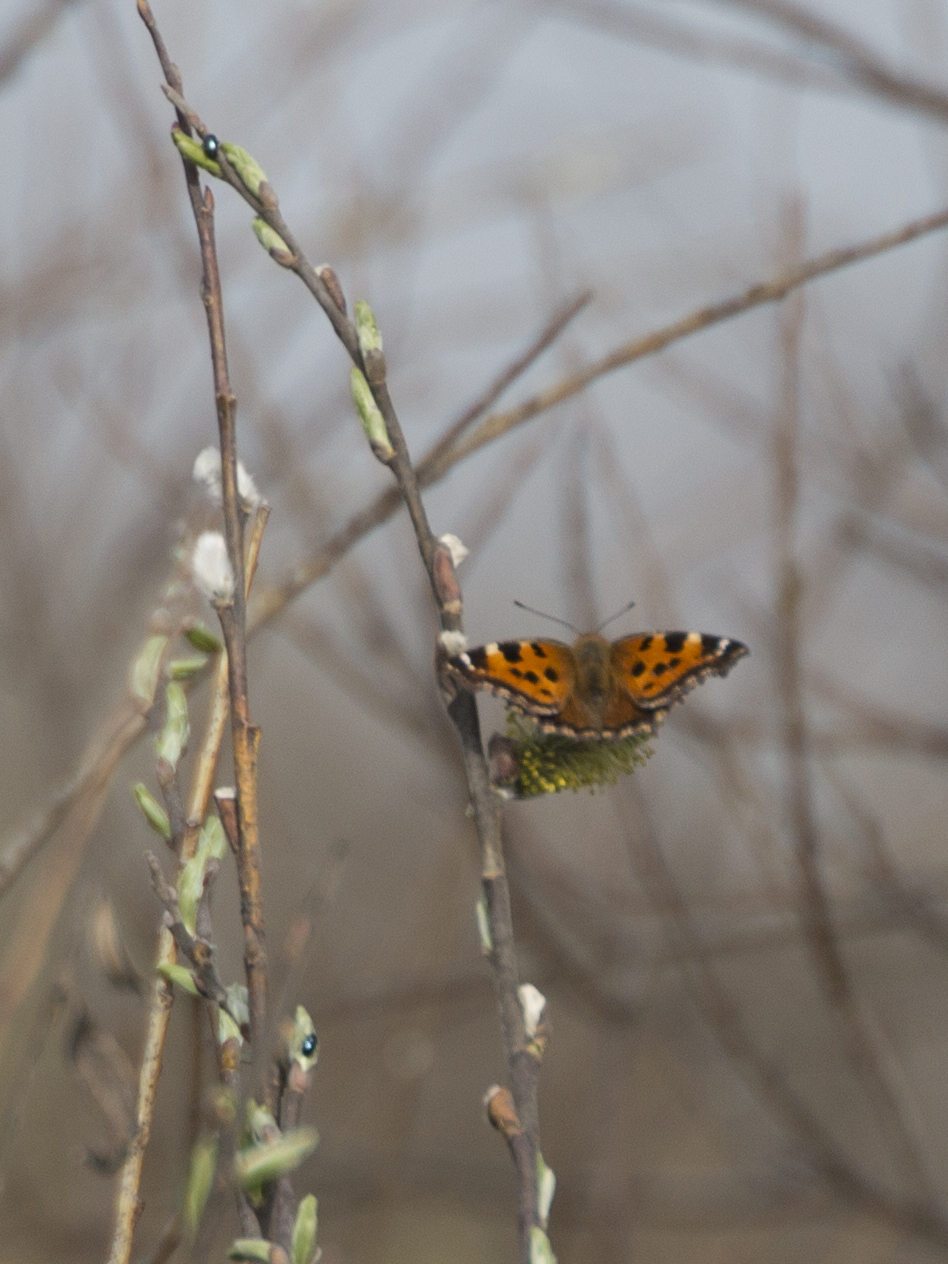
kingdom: Animalia
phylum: Arthropoda
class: Insecta
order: Lepidoptera
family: Nymphalidae
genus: Nymphalis
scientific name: Nymphalis xanthomelas
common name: Scarce tortoiseshell
